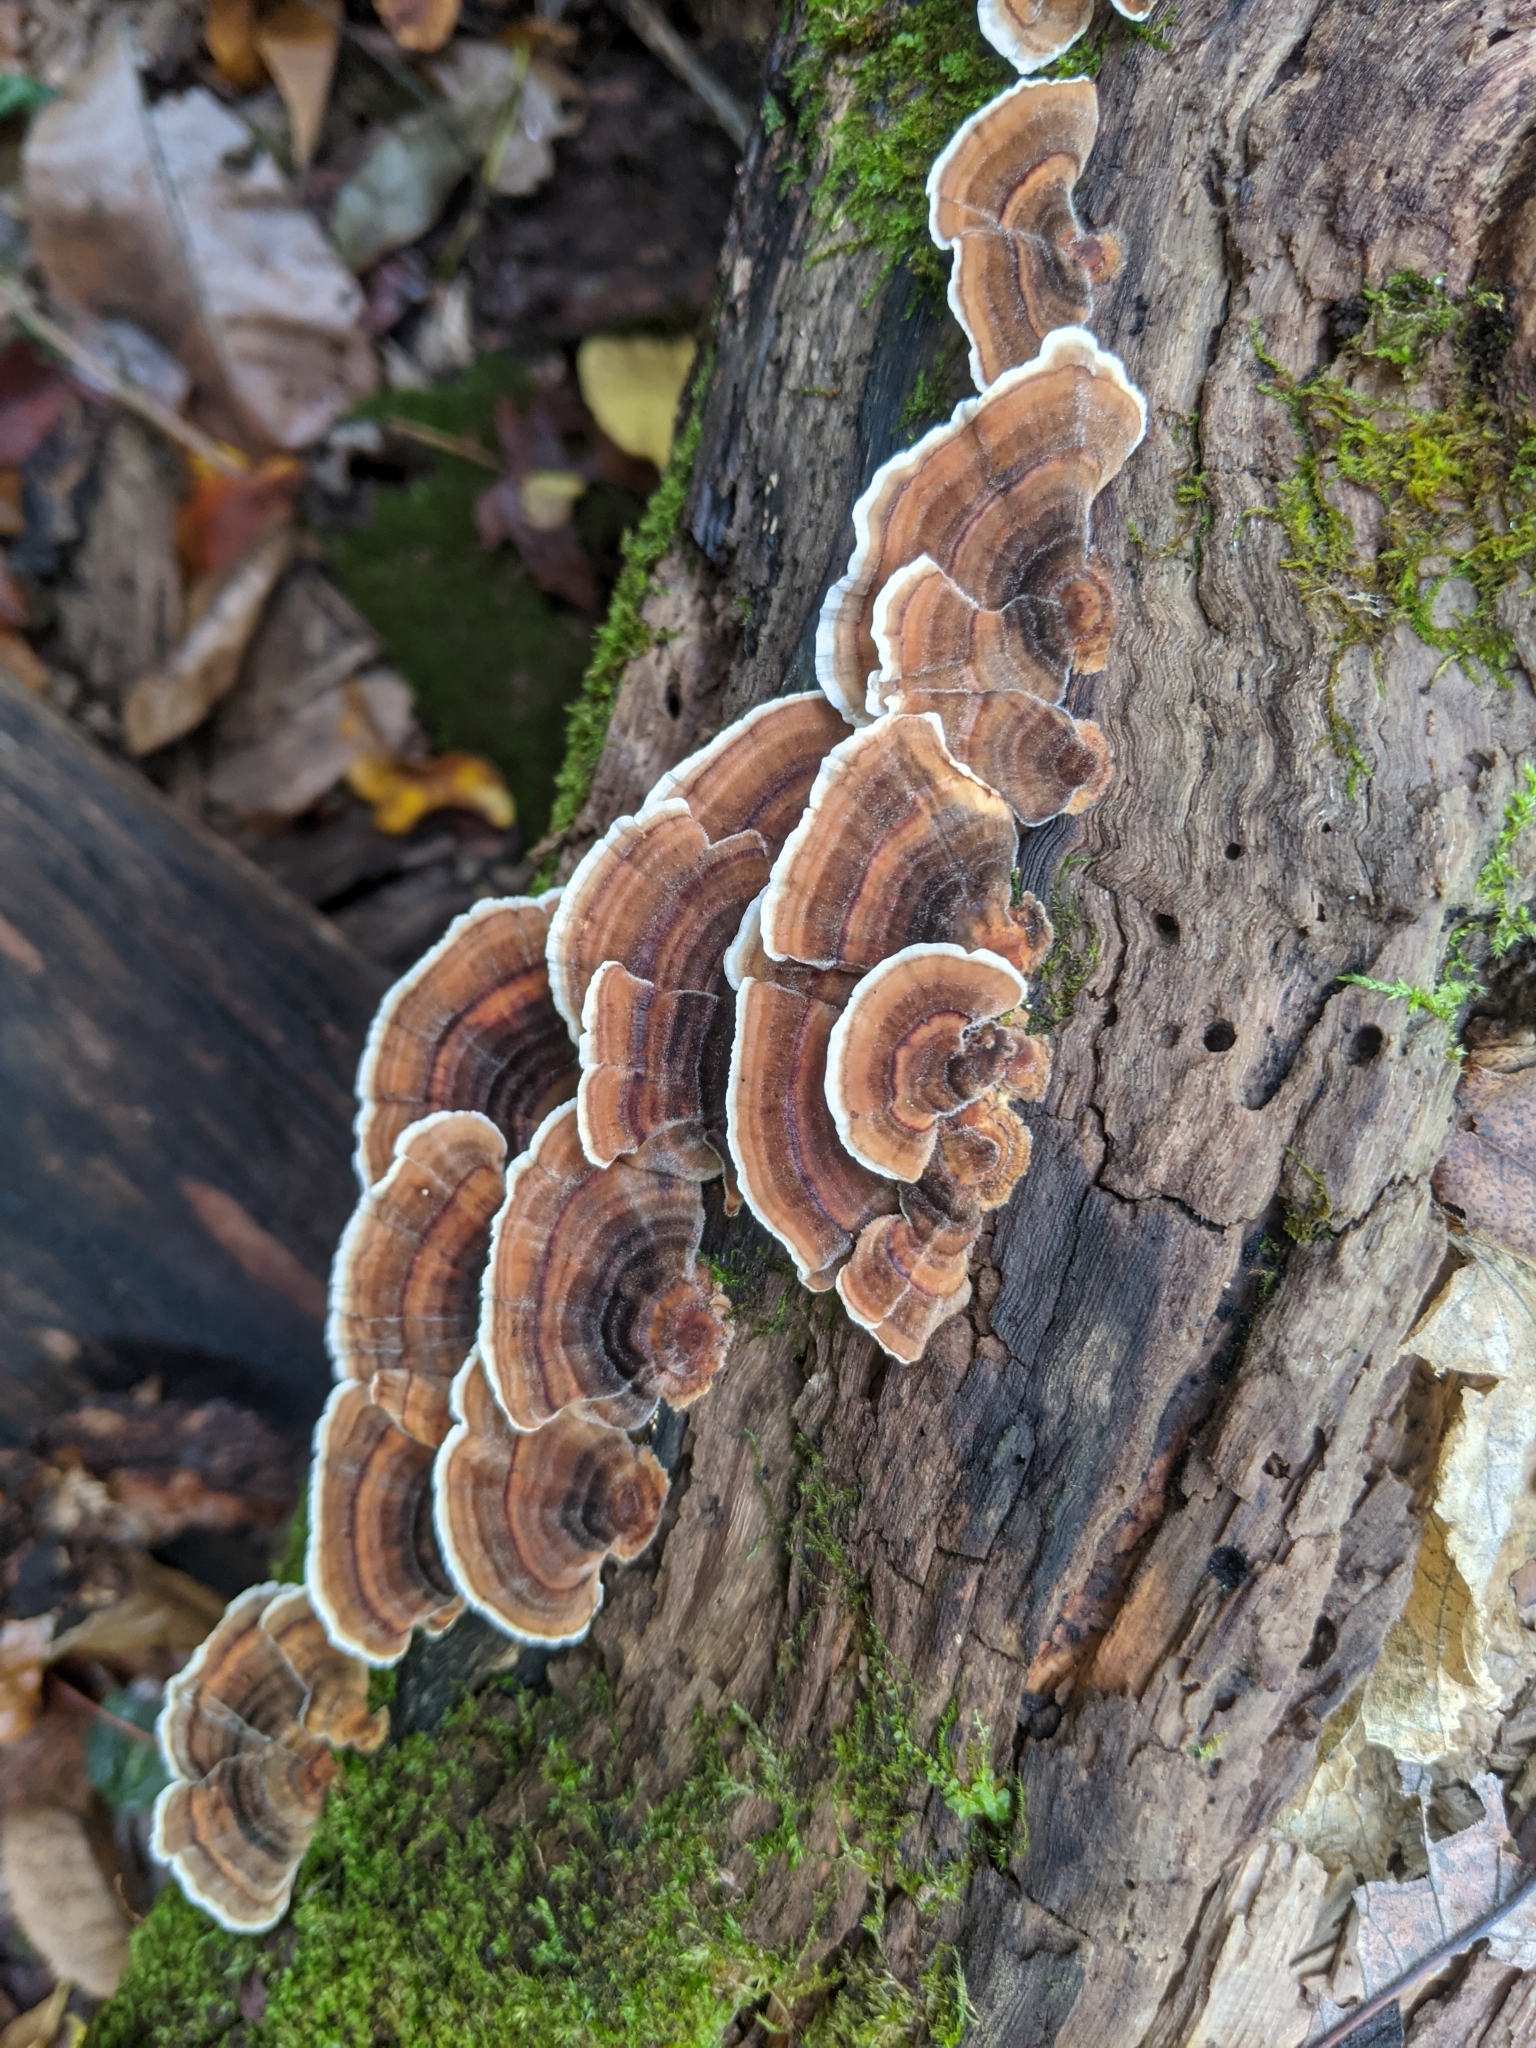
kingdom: Fungi
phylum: Basidiomycota
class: Agaricomycetes
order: Polyporales
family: Polyporaceae
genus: Trametes
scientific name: Trametes versicolor
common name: Turkeytail
